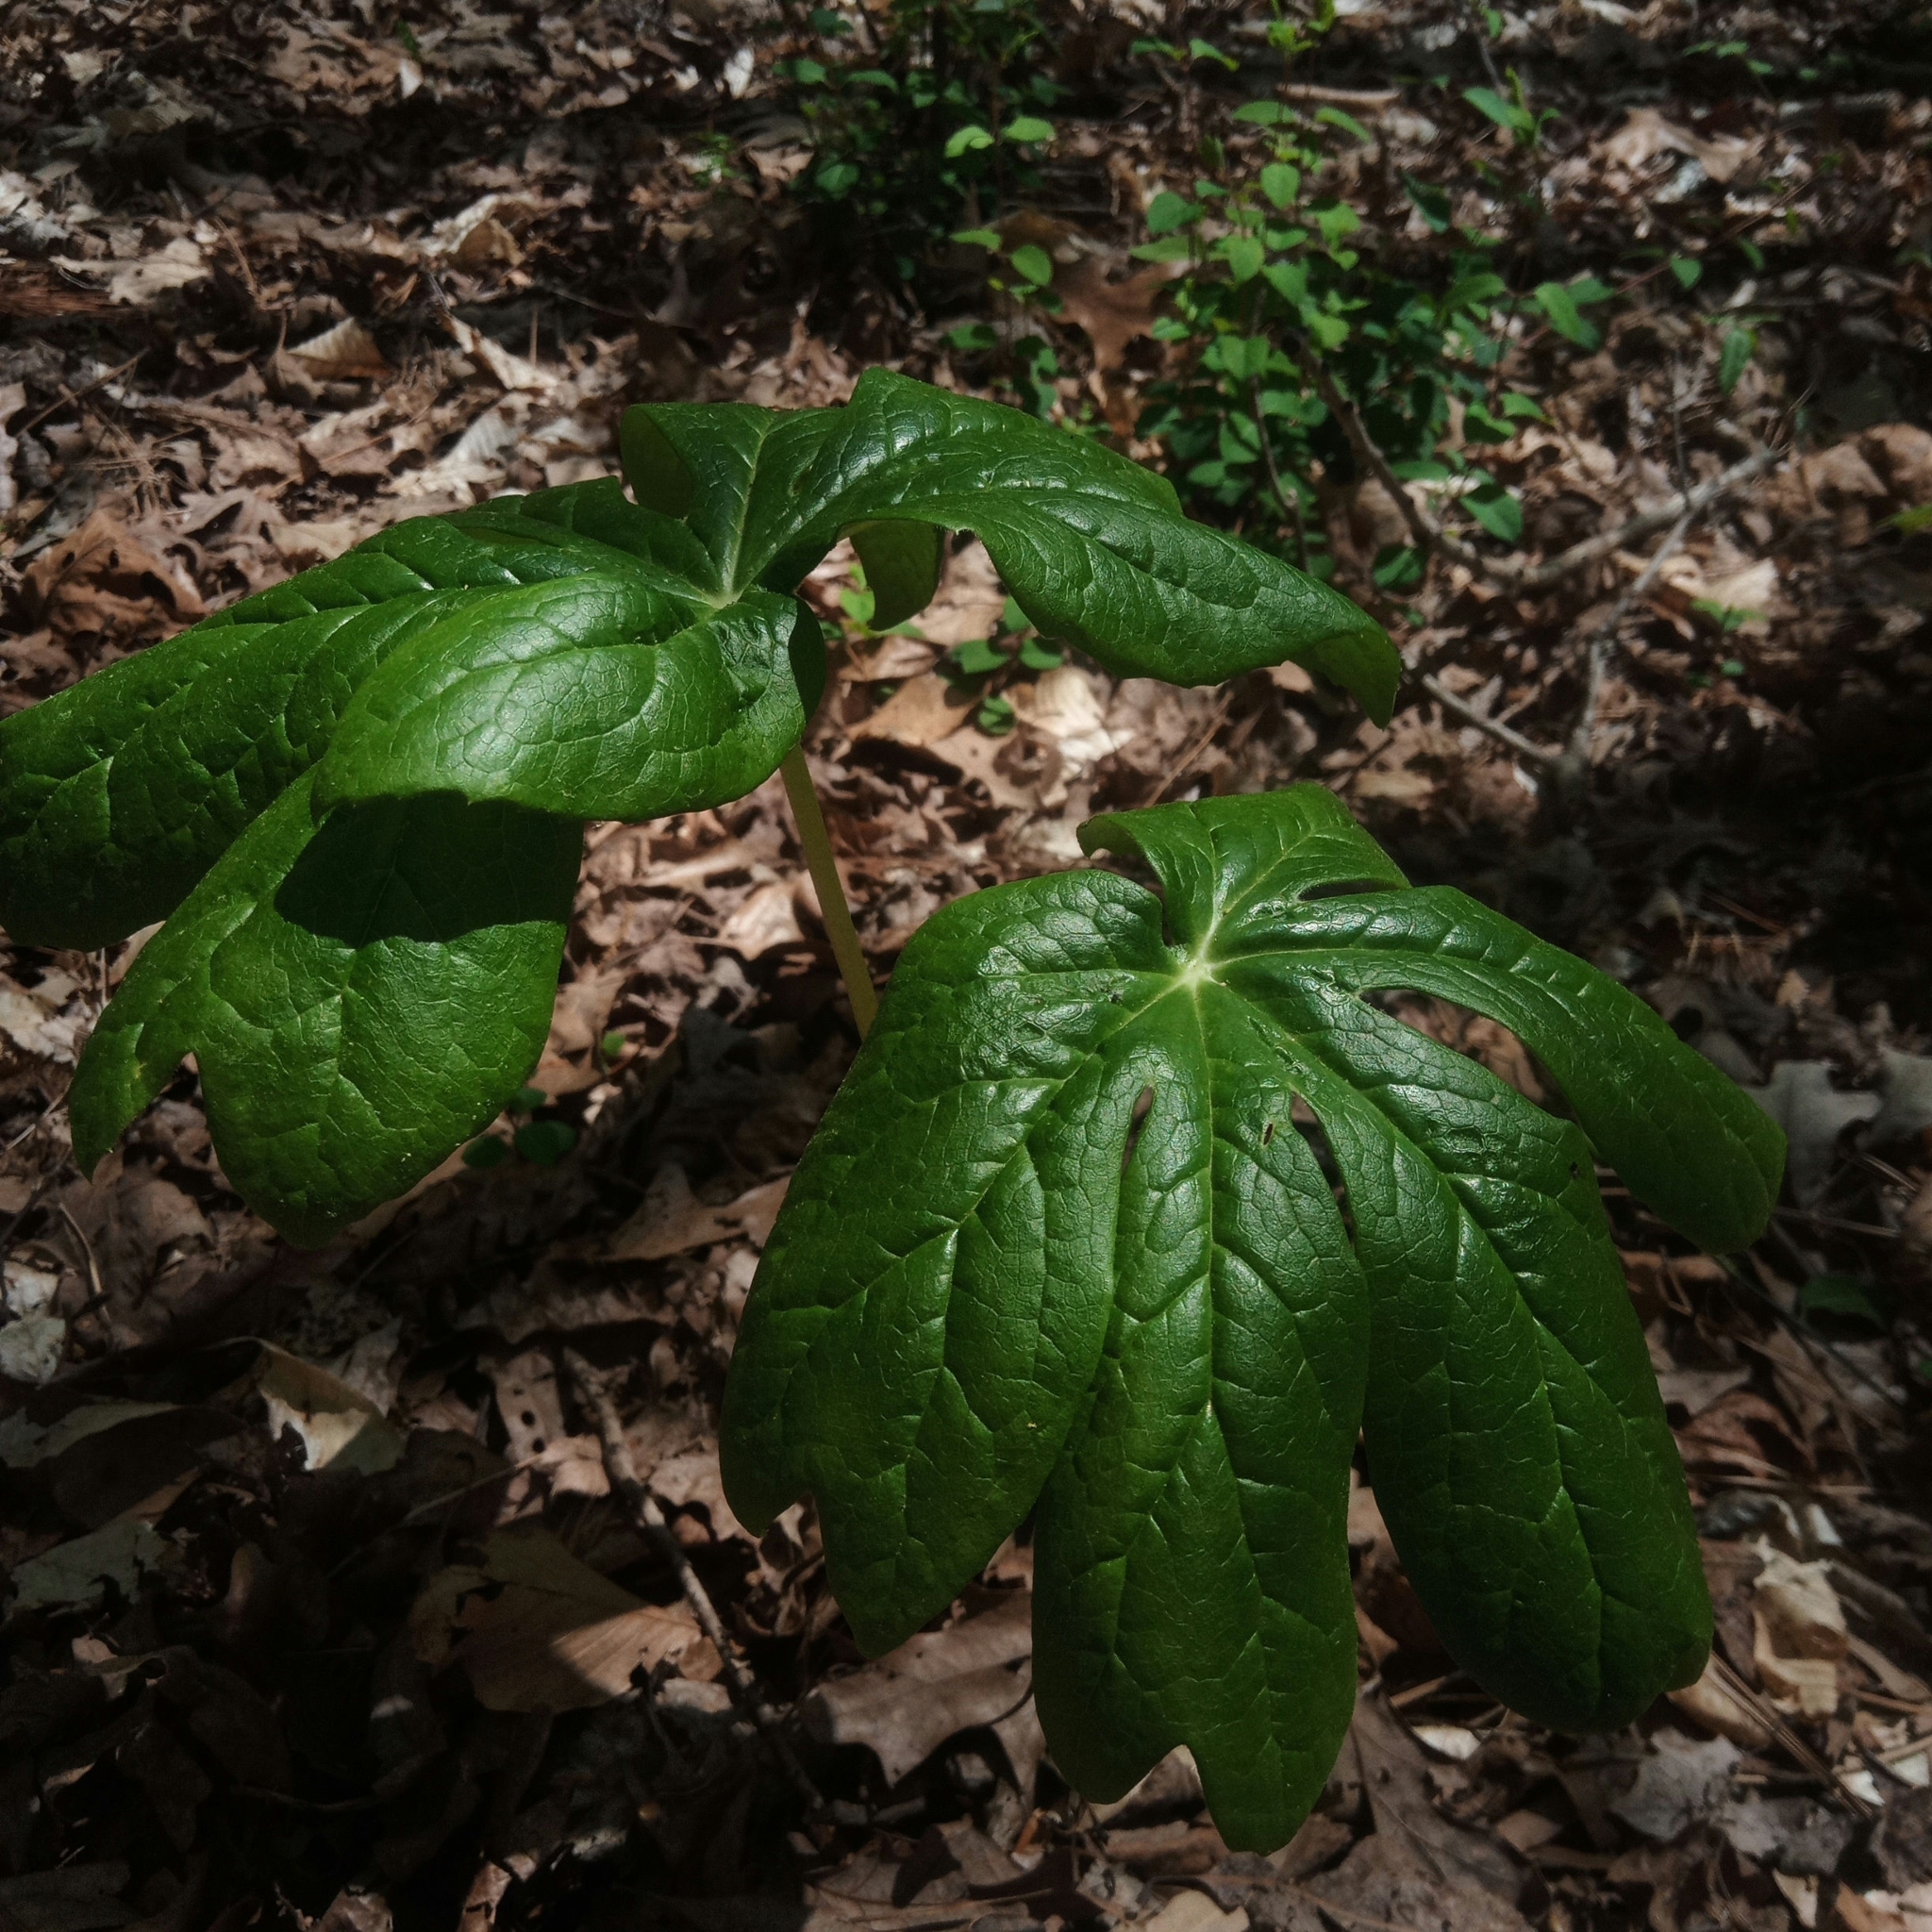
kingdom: Plantae
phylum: Tracheophyta
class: Magnoliopsida
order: Ranunculales
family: Berberidaceae
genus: Podophyllum
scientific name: Podophyllum peltatum
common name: Wild mandrake
